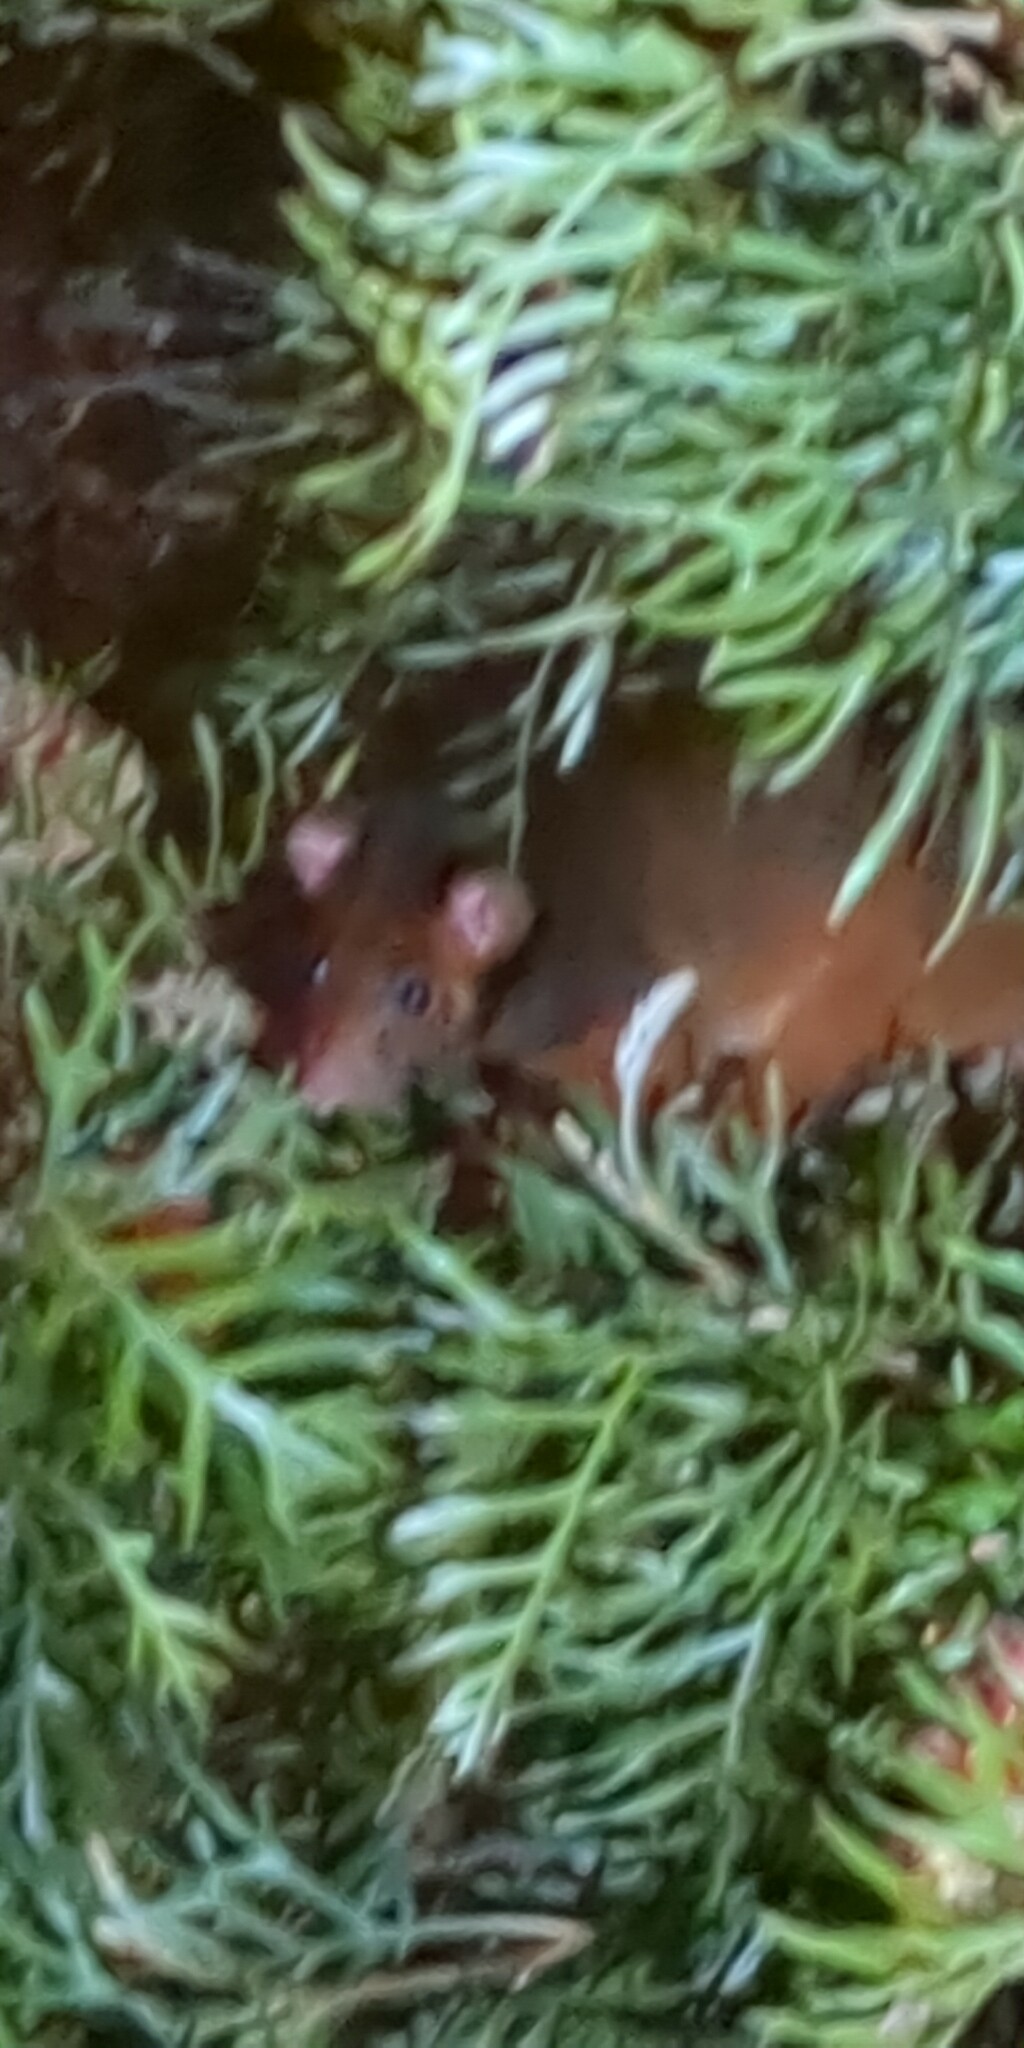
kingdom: Animalia
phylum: Chordata
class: Mammalia
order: Diprotodontia
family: Pseudocheiridae
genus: Pseudocheirus
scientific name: Pseudocheirus peregrinus
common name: Common ringtail possum
